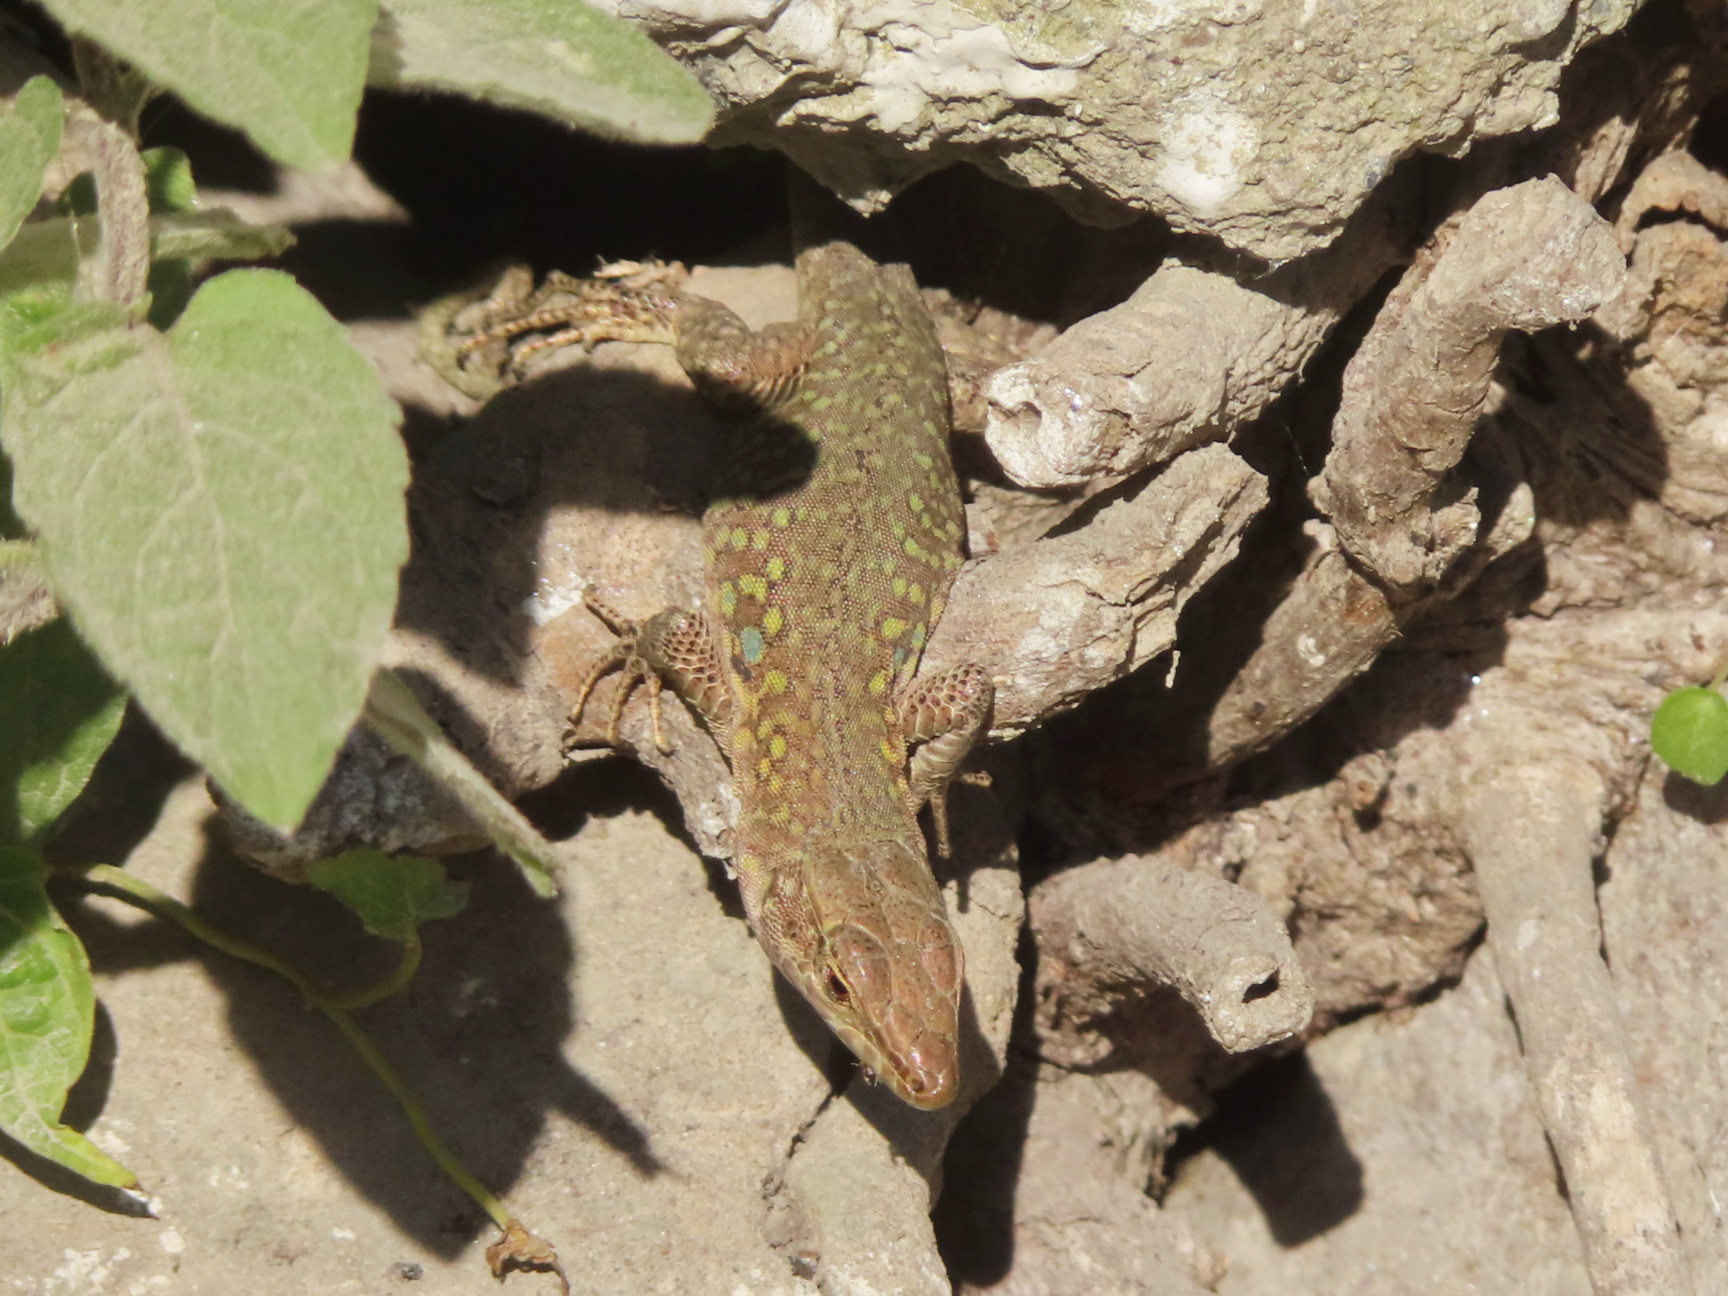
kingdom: Animalia
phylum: Chordata
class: Squamata
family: Lacertidae
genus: Podarcis
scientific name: Podarcis siculus
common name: Italian wall lizard
